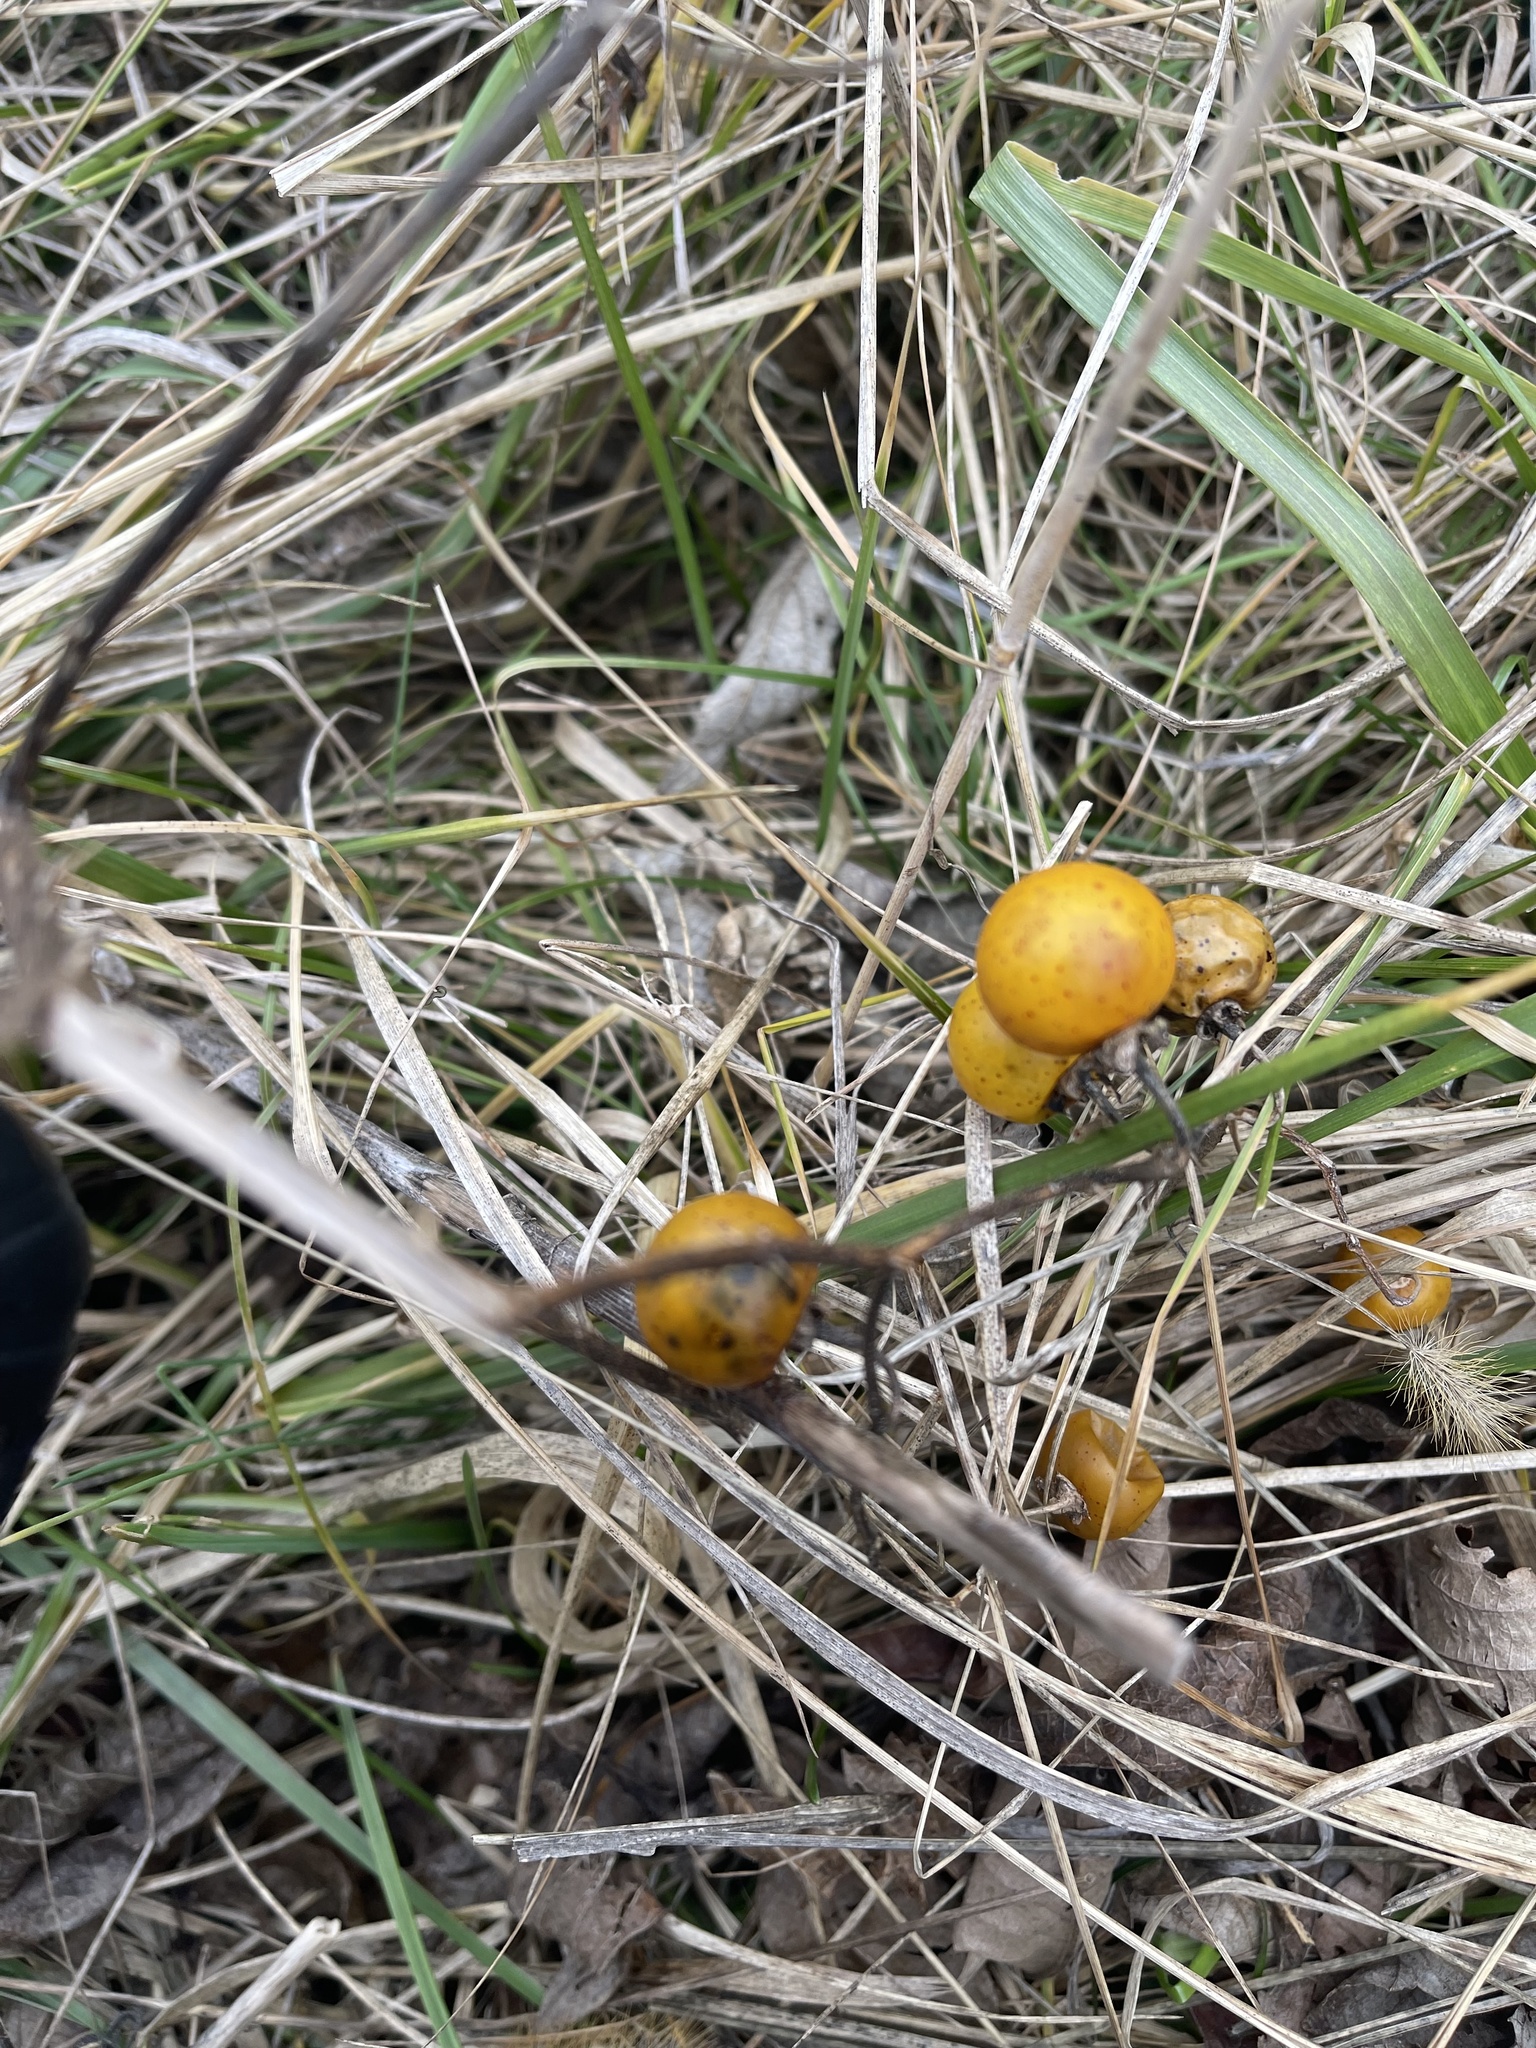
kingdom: Plantae
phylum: Tracheophyta
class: Magnoliopsida
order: Solanales
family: Solanaceae
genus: Solanum
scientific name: Solanum carolinense
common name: Horse-nettle
